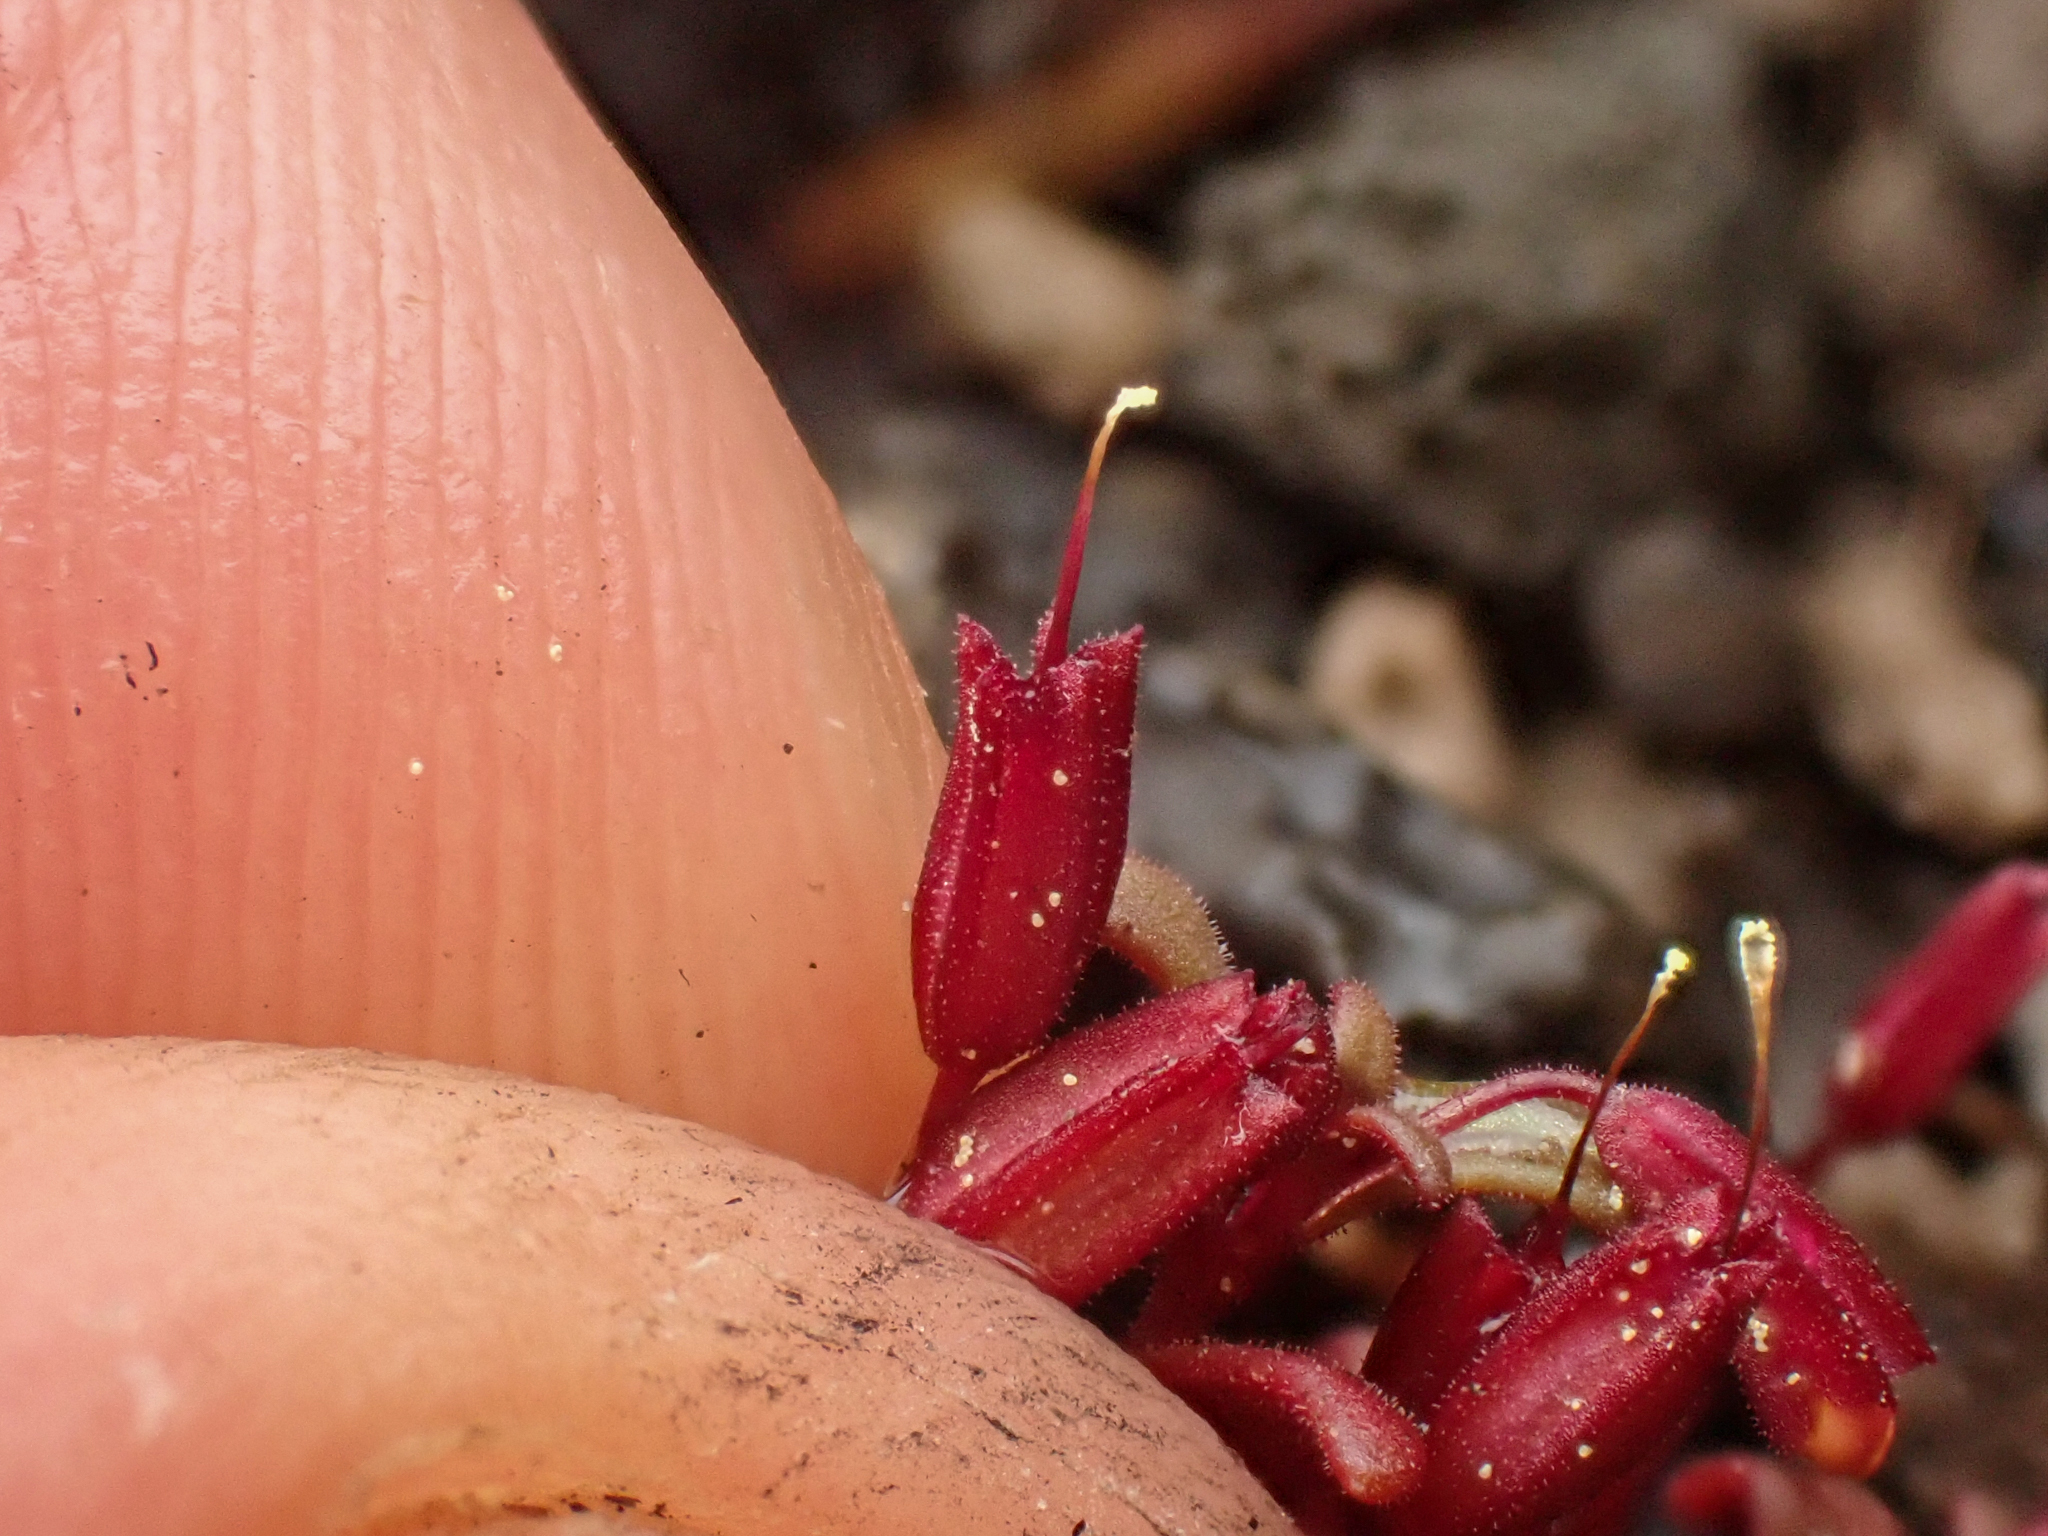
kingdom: Plantae
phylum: Tracheophyta
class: Magnoliopsida
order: Lamiales
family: Phrymaceae
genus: Erythranthe
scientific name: Erythranthe suksdorfii
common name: Suksdorf's monkeyflower
